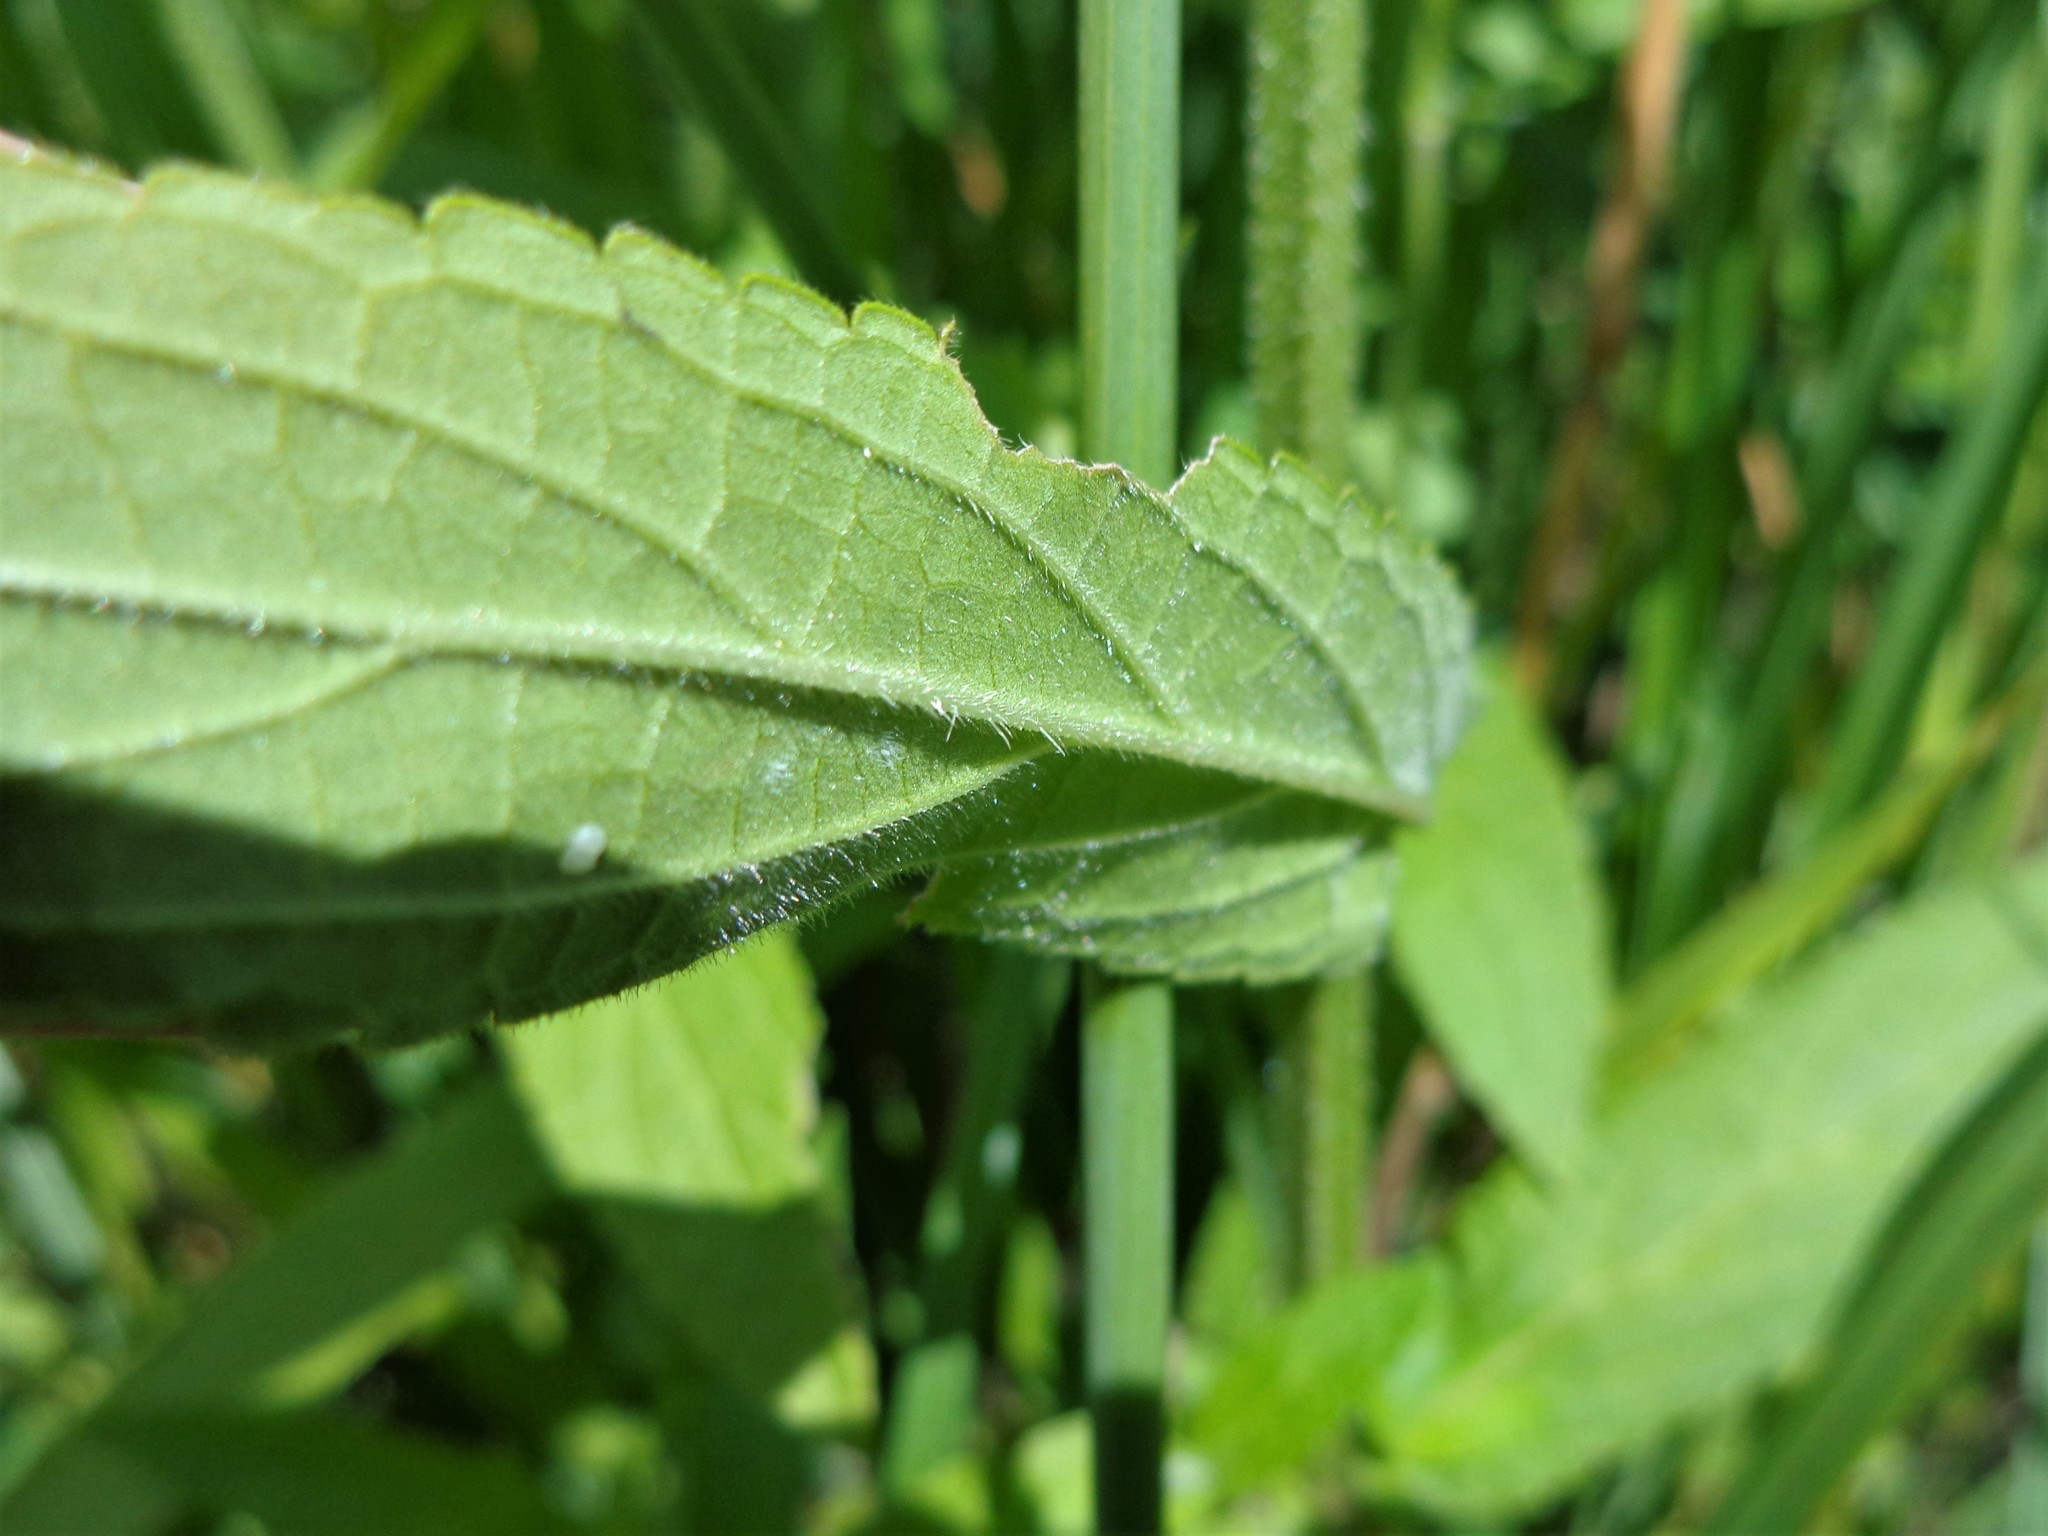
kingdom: Plantae
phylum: Tracheophyta
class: Magnoliopsida
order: Lamiales
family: Lamiaceae
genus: Stachys
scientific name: Stachys palustris
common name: Marsh woundwort
